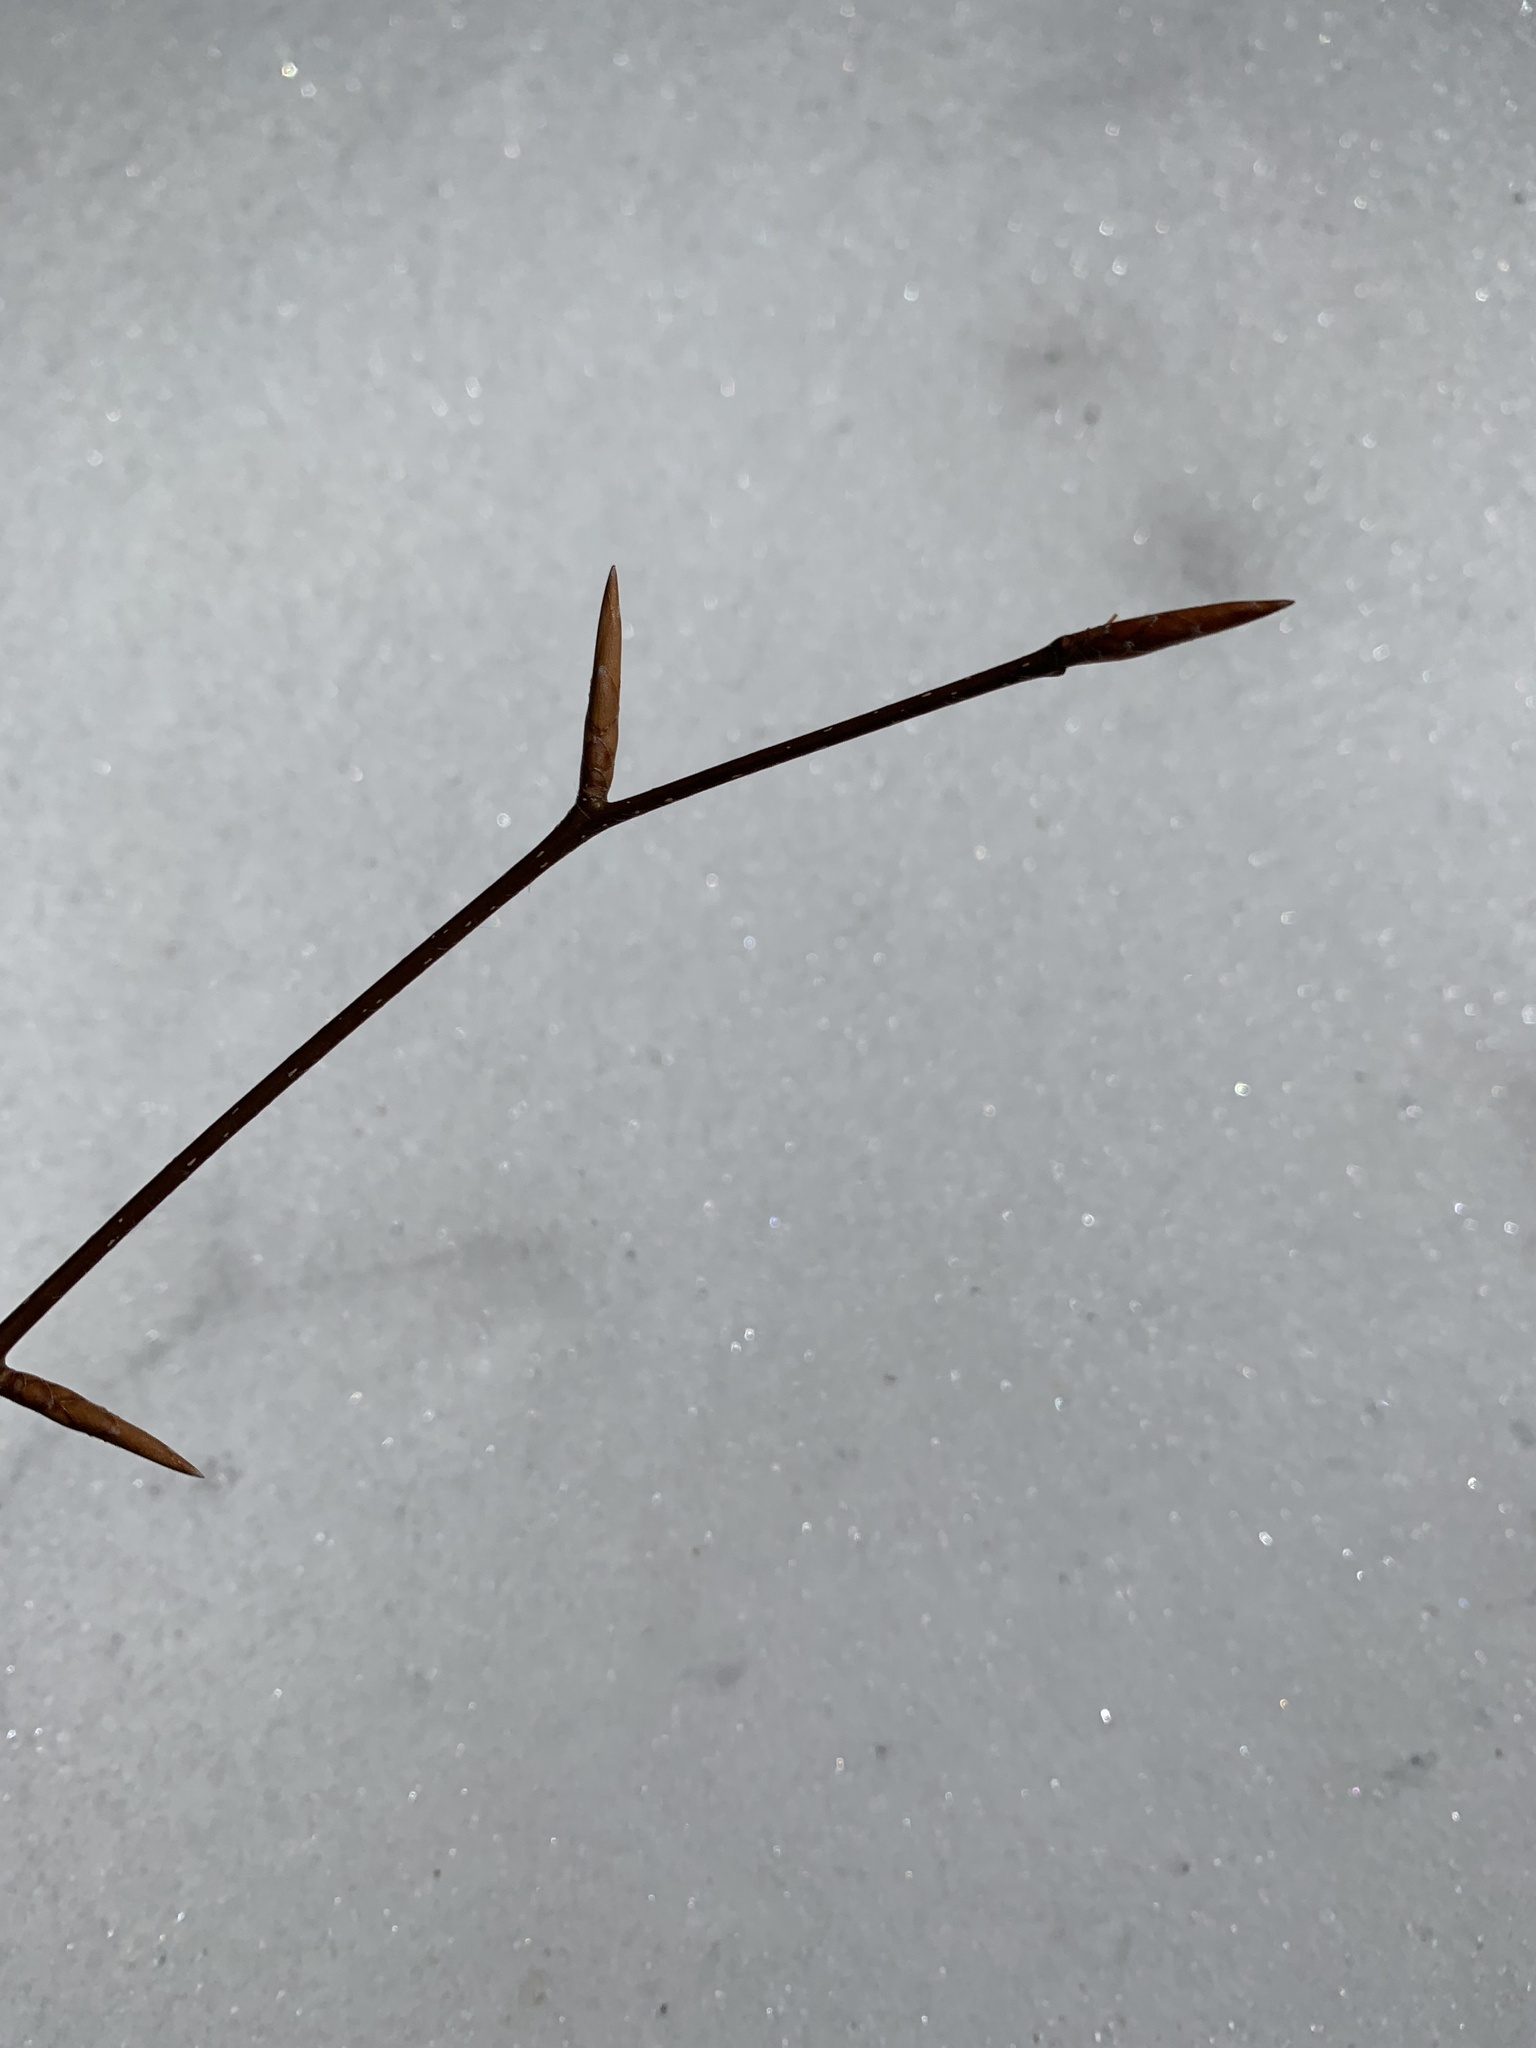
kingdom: Plantae
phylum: Tracheophyta
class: Magnoliopsida
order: Fagales
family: Fagaceae
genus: Fagus
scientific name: Fagus grandifolia
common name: American beech
